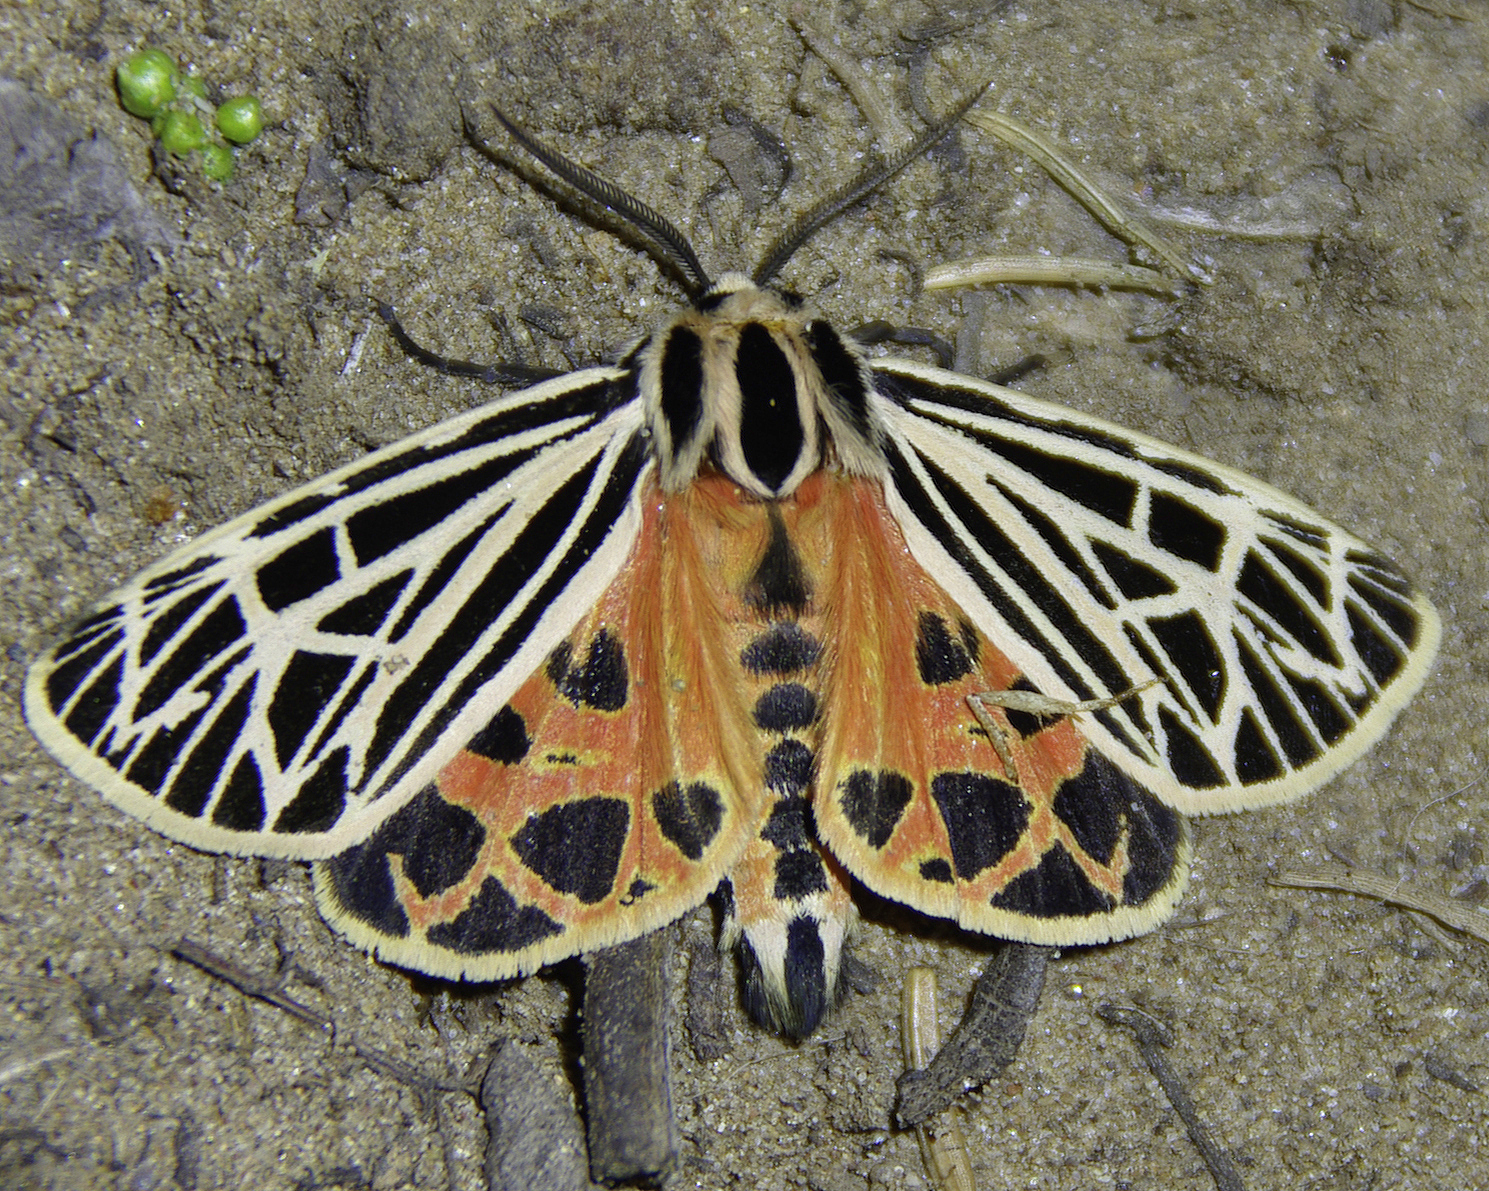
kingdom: Animalia
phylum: Arthropoda
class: Insecta
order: Lepidoptera
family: Erebidae
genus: Grammia
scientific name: Grammia virgo
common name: Virgin tiger moth
